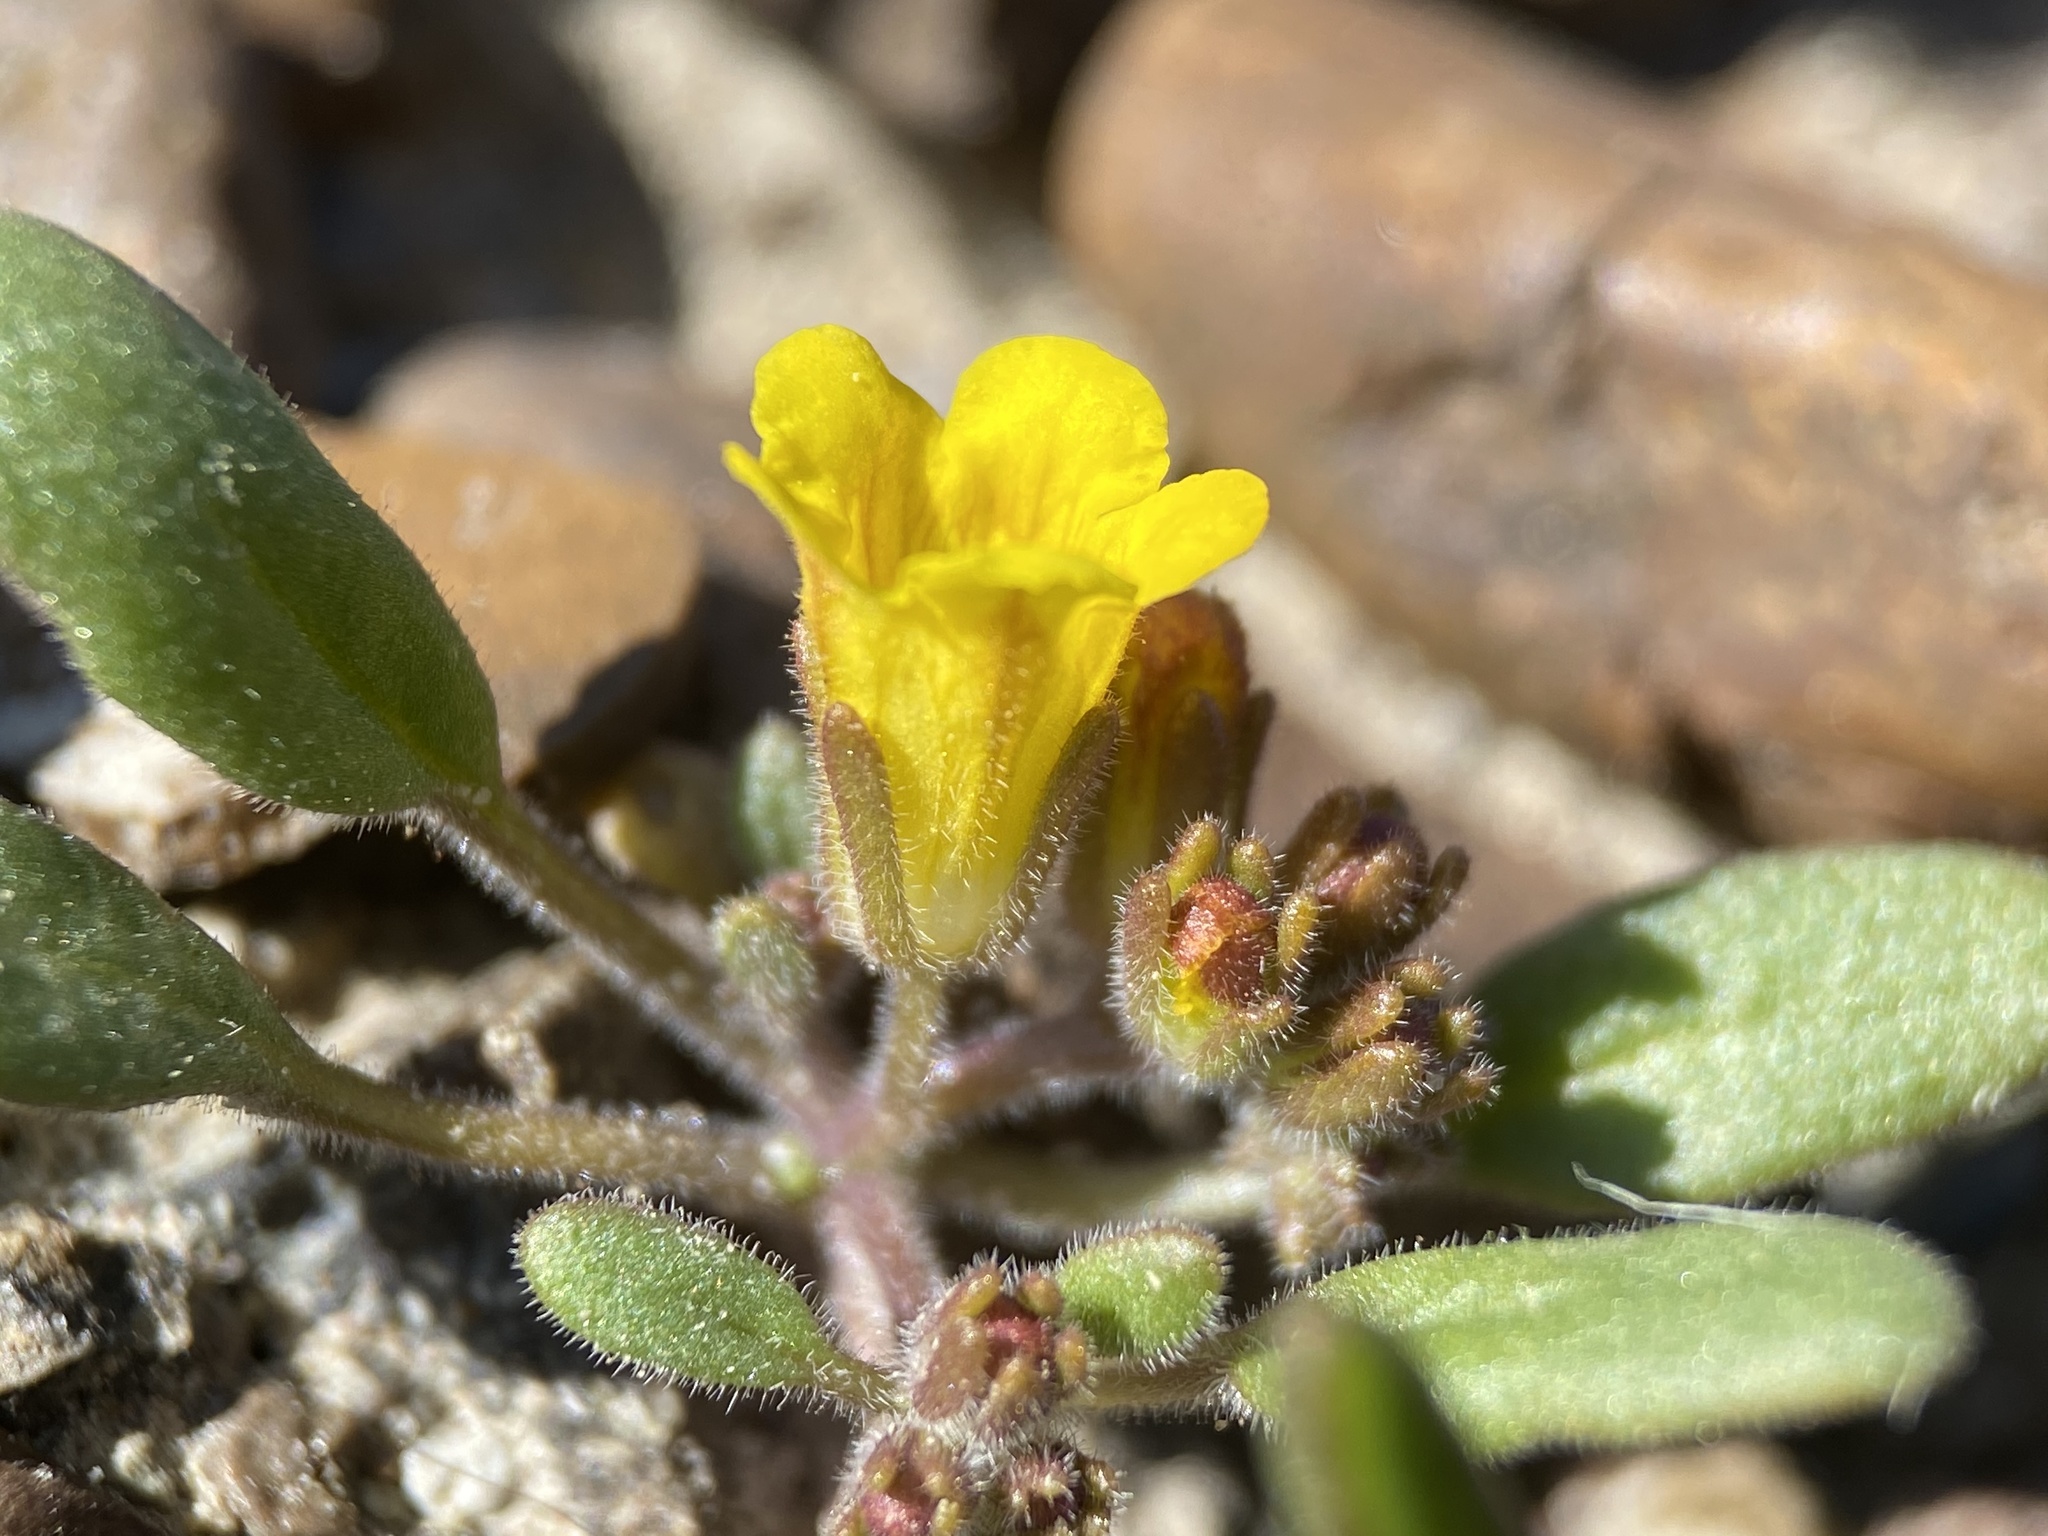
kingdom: Plantae
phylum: Tracheophyta
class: Magnoliopsida
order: Boraginales
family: Hydrophyllaceae
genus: Phacelia
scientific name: Phacelia lutea
